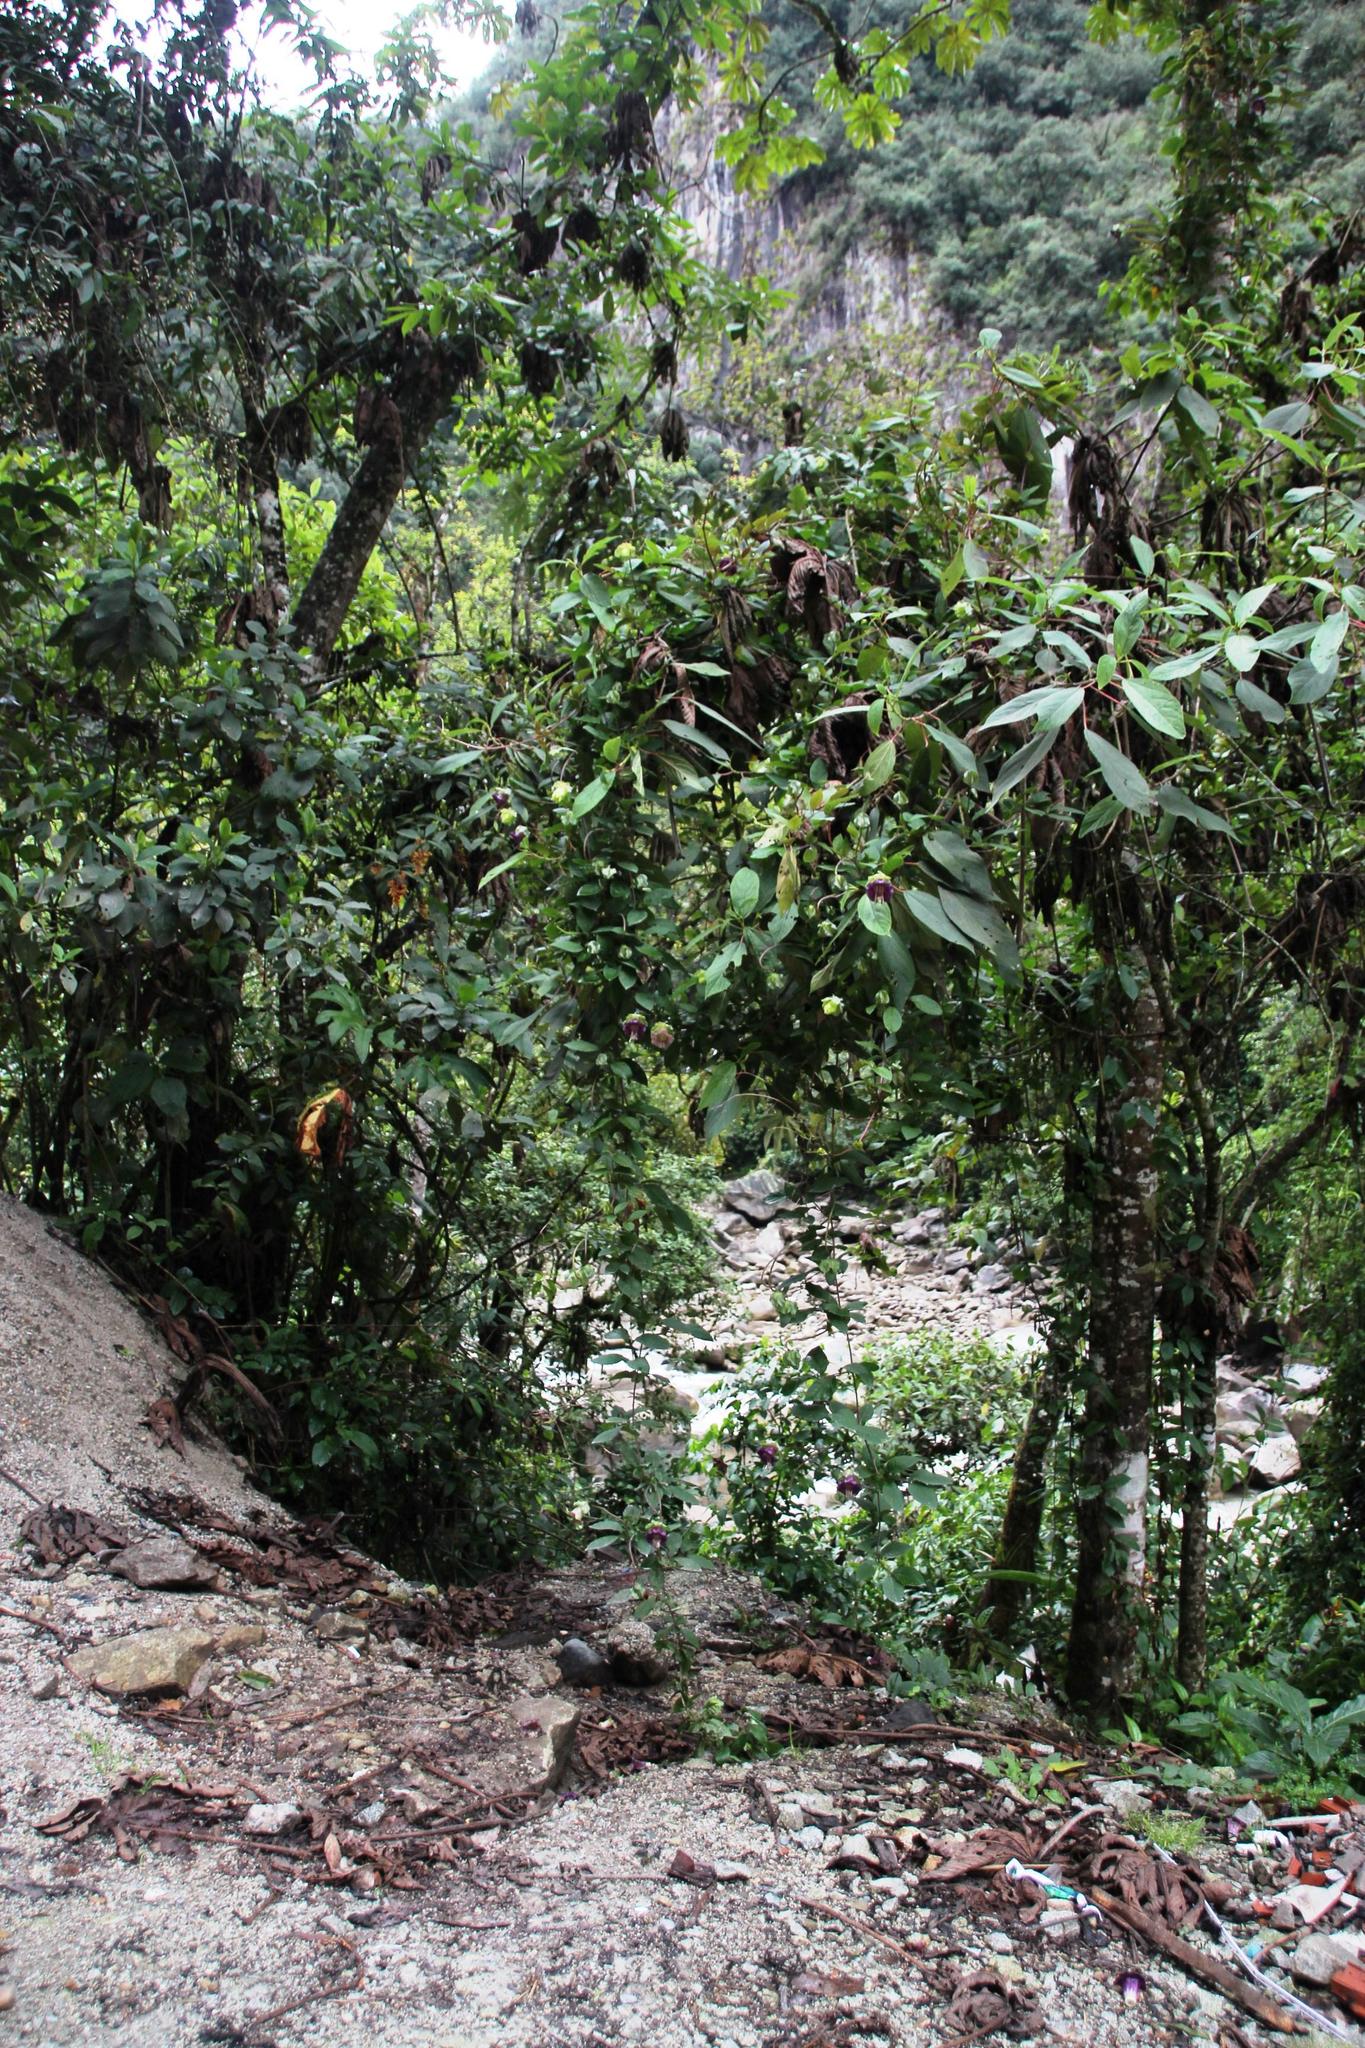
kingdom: Plantae
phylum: Tracheophyta
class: Magnoliopsida
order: Ericales
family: Polemoniaceae
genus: Cobaea
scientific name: Cobaea scandens
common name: Cup-and-saucer-vine
